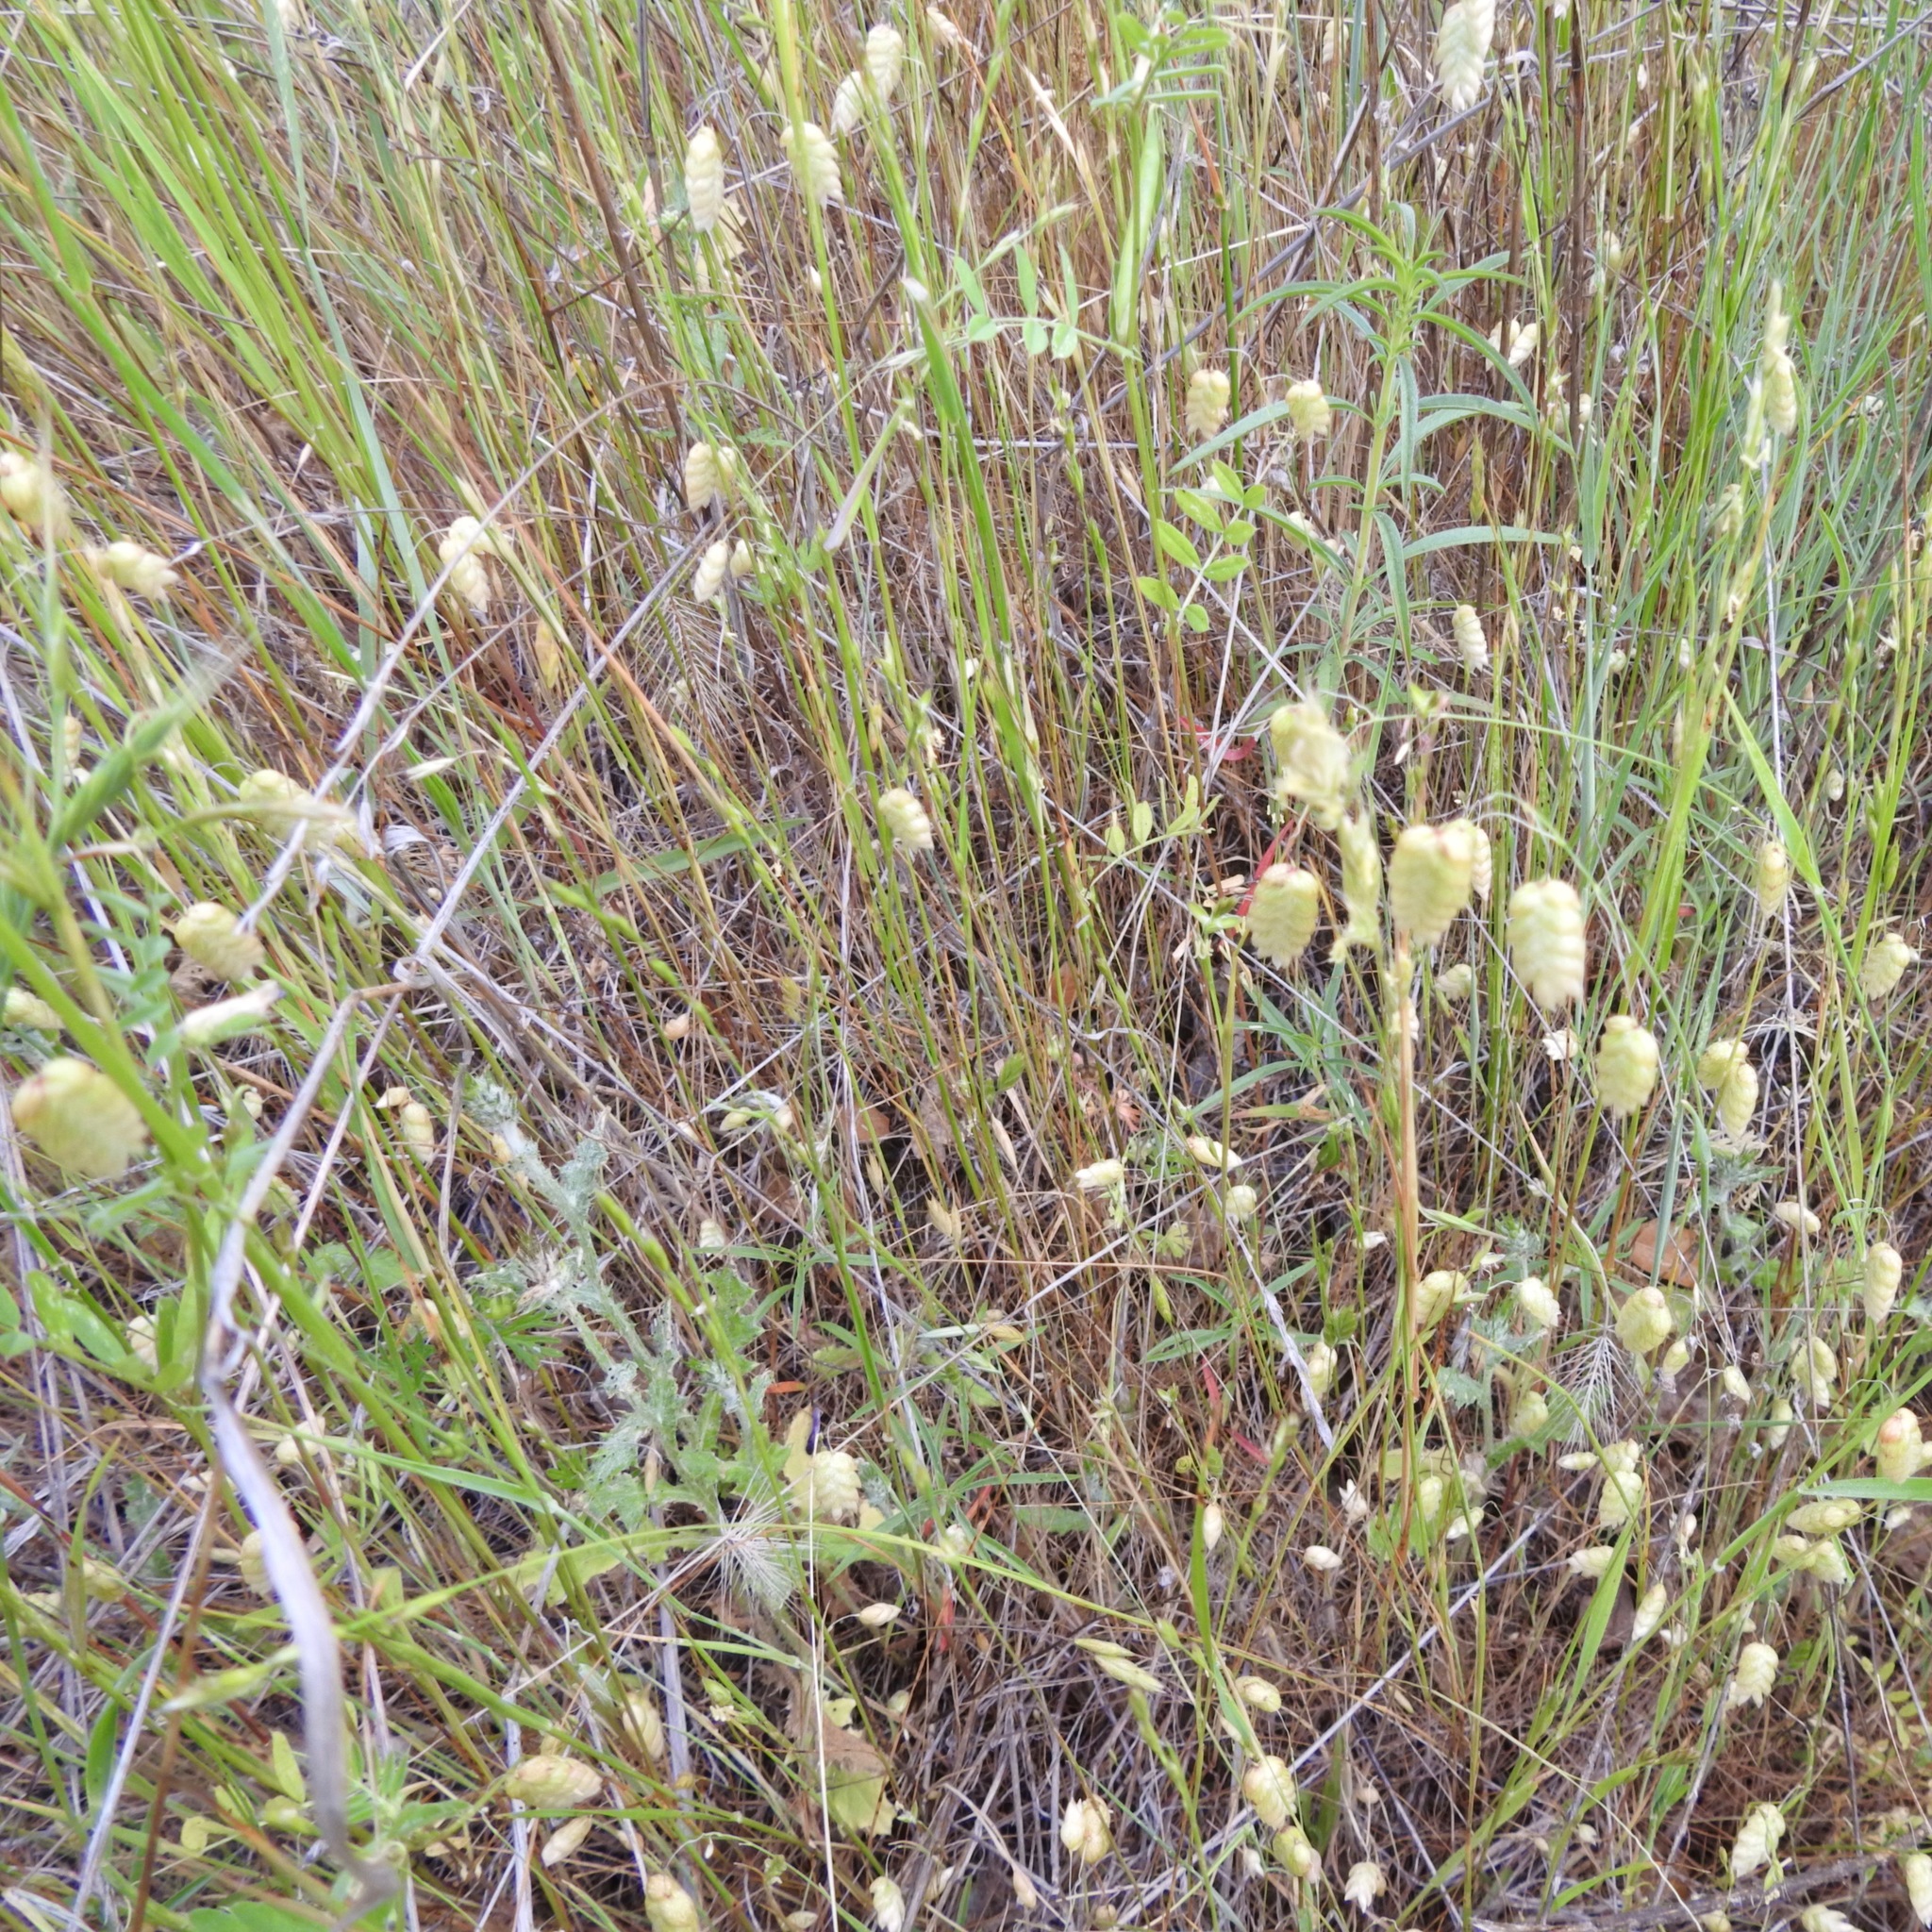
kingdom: Plantae
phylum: Tracheophyta
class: Liliopsida
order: Poales
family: Poaceae
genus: Briza
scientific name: Briza maxima
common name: Big quakinggrass
